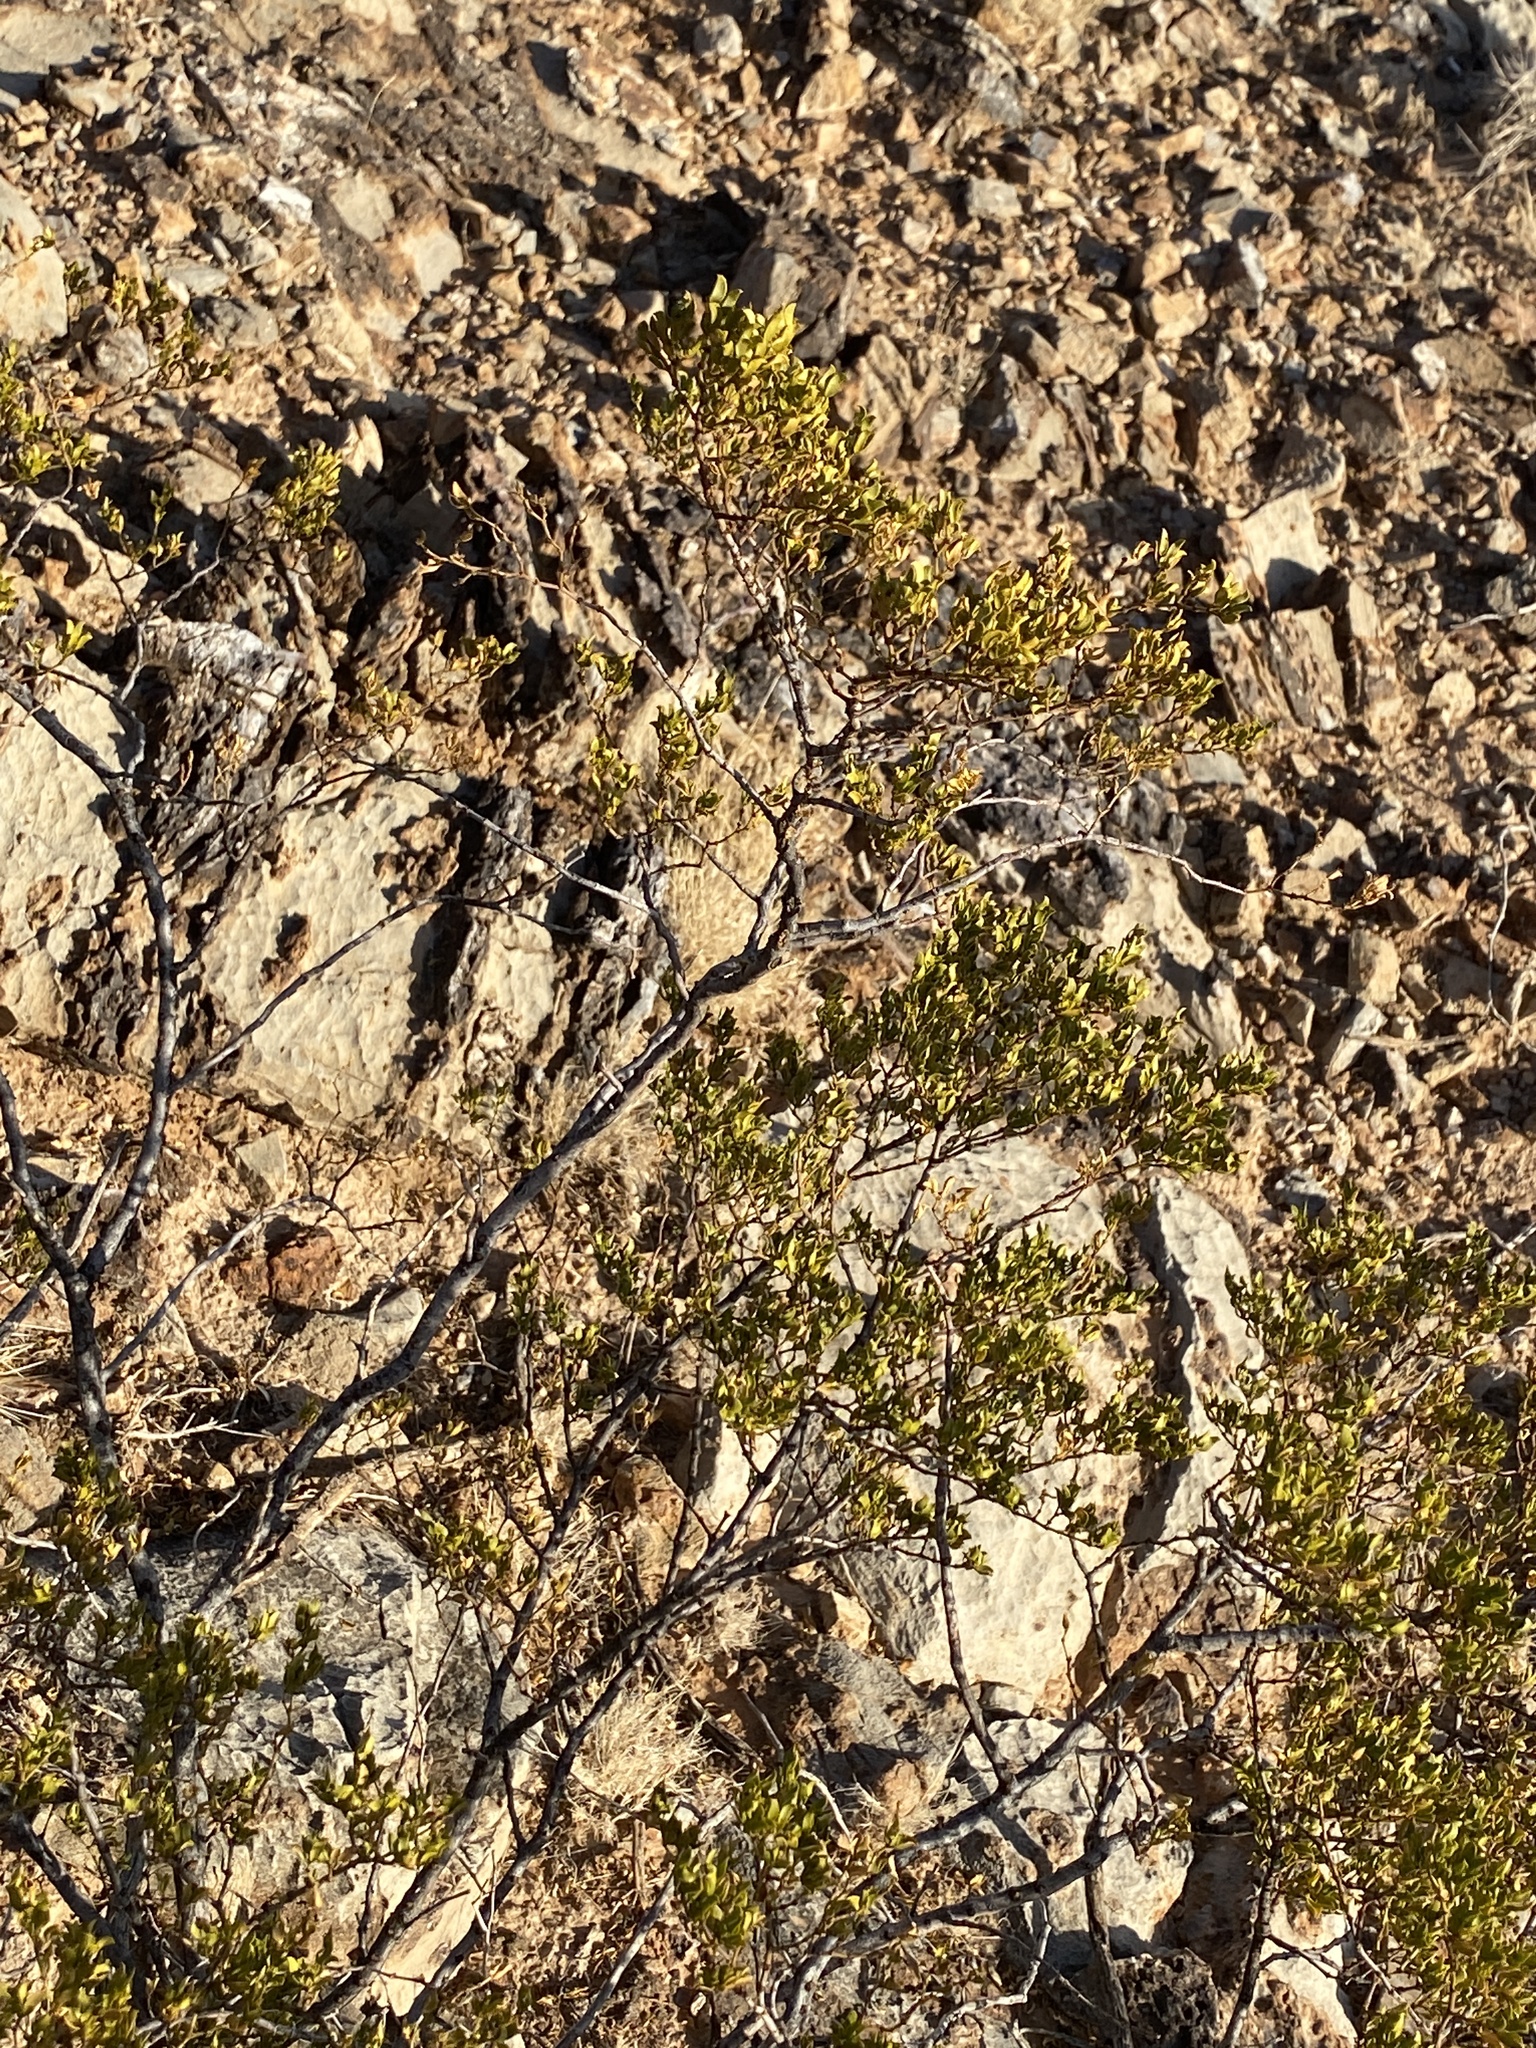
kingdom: Plantae
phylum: Tracheophyta
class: Magnoliopsida
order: Zygophyllales
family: Zygophyllaceae
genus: Larrea
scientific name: Larrea tridentata
